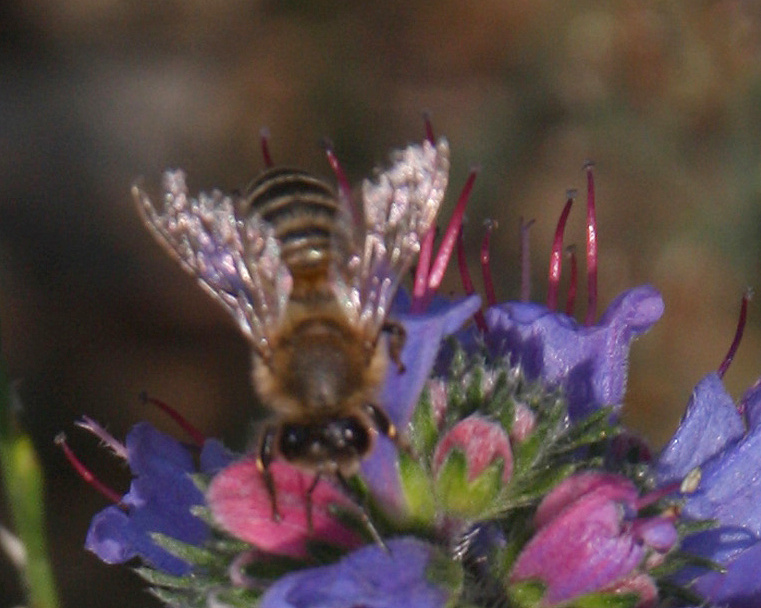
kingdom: Animalia
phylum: Arthropoda
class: Insecta
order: Hymenoptera
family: Apidae
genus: Apis
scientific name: Apis mellifera
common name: Honey bee
